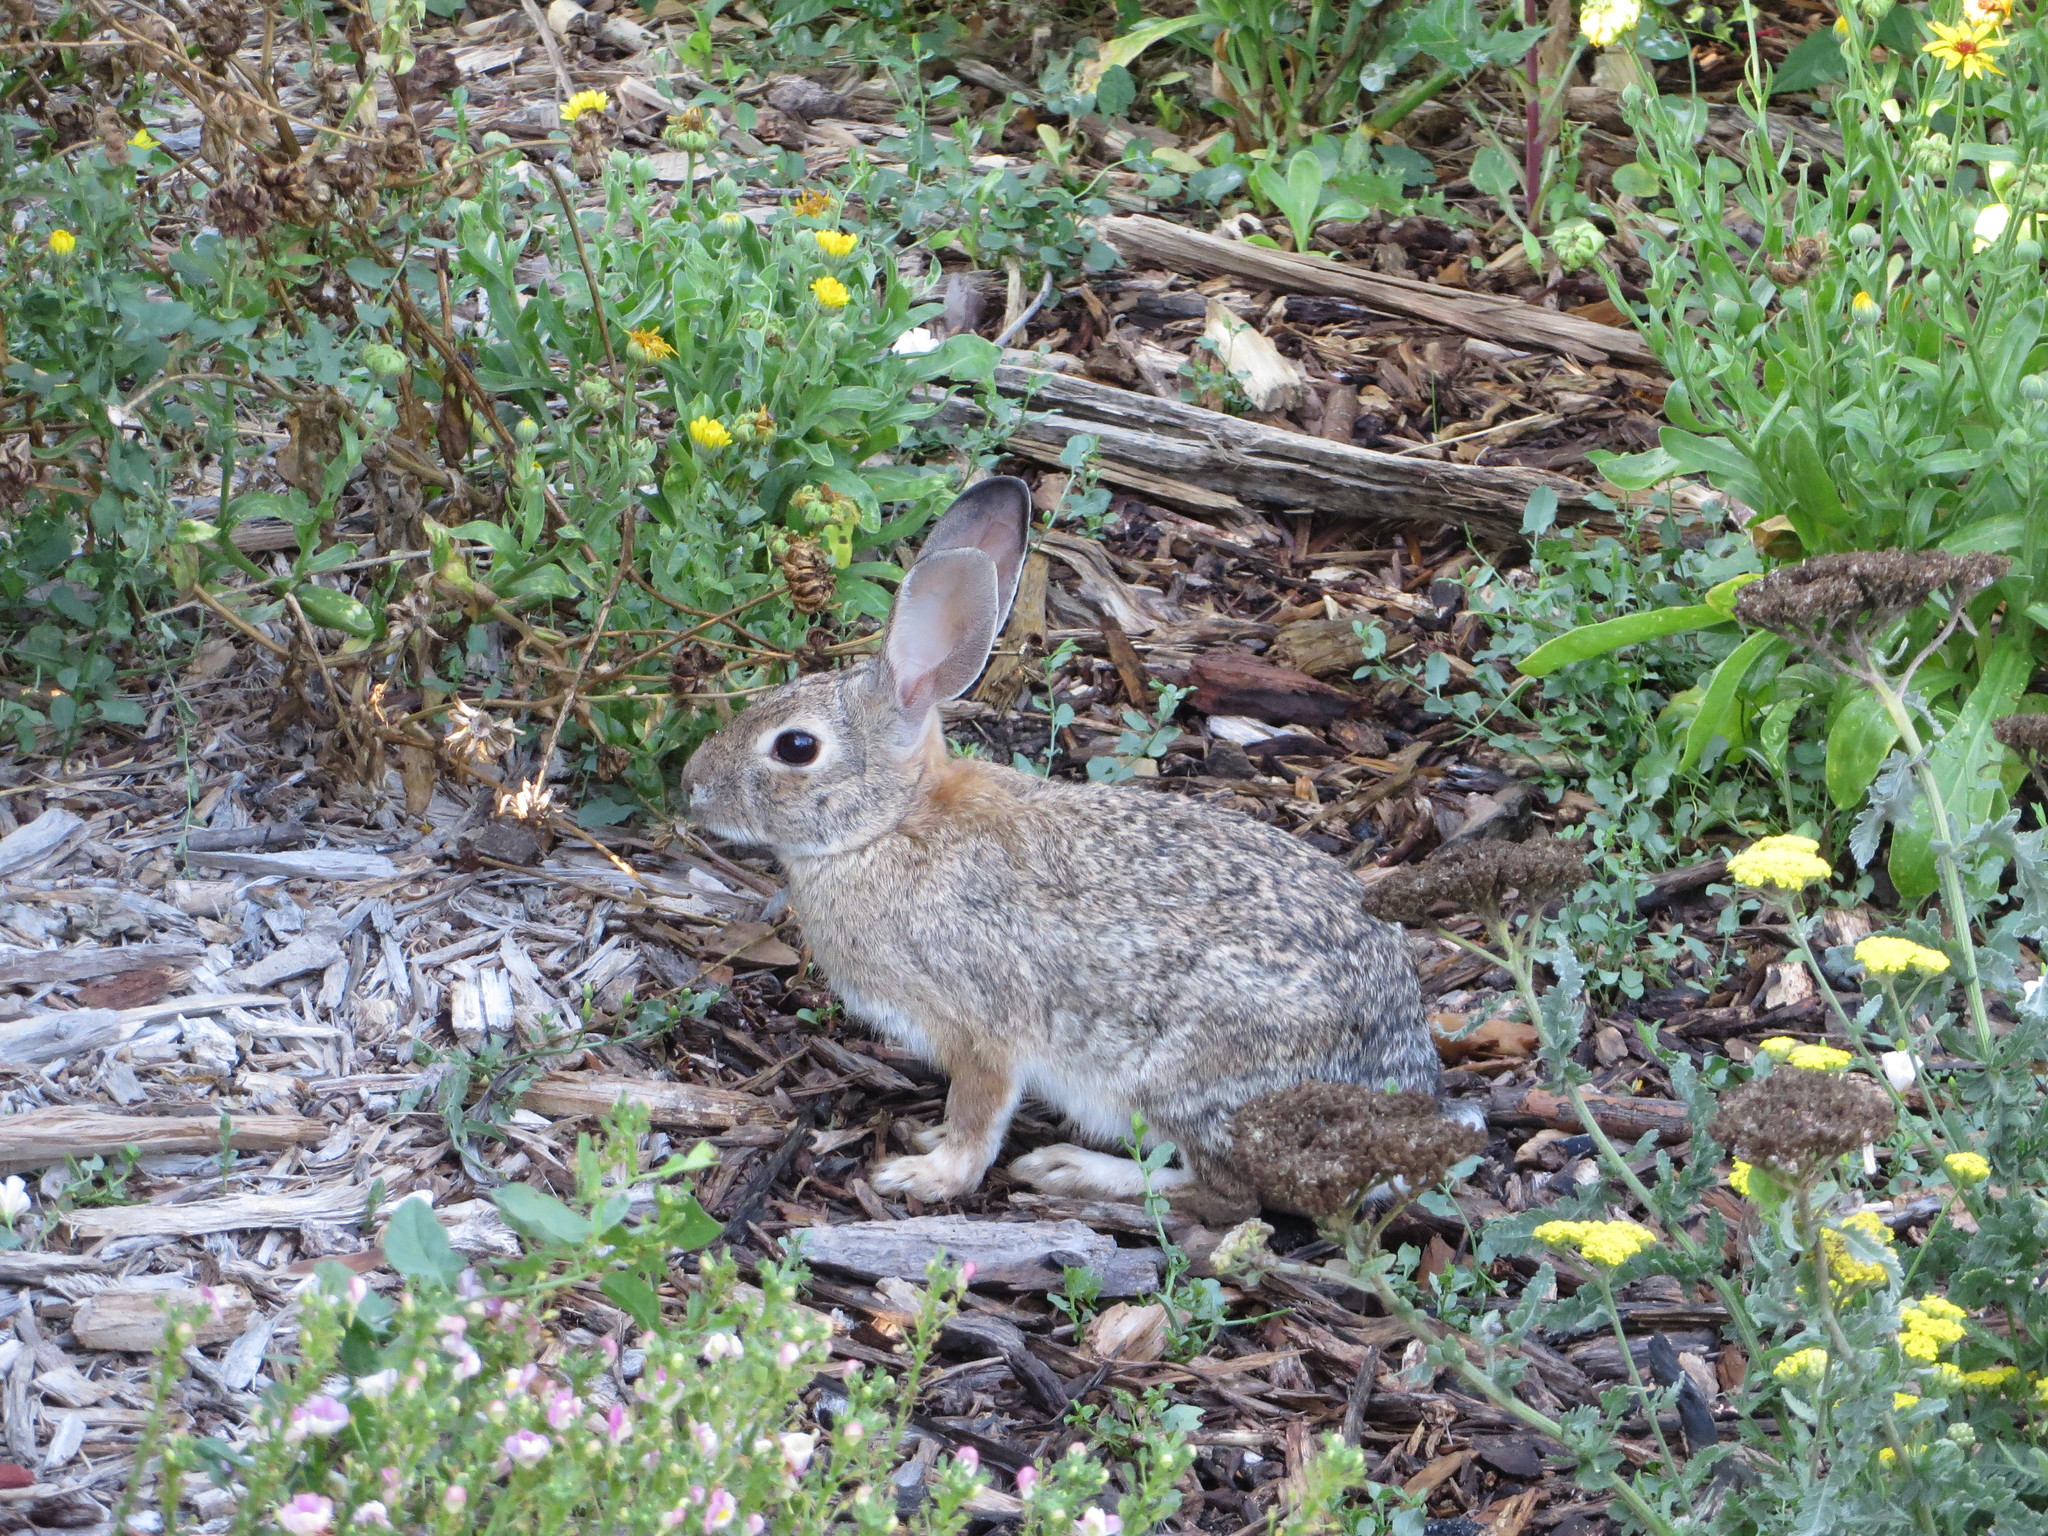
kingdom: Animalia
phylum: Chordata
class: Mammalia
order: Lagomorpha
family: Leporidae
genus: Sylvilagus
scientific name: Sylvilagus audubonii
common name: Desert cottontail
